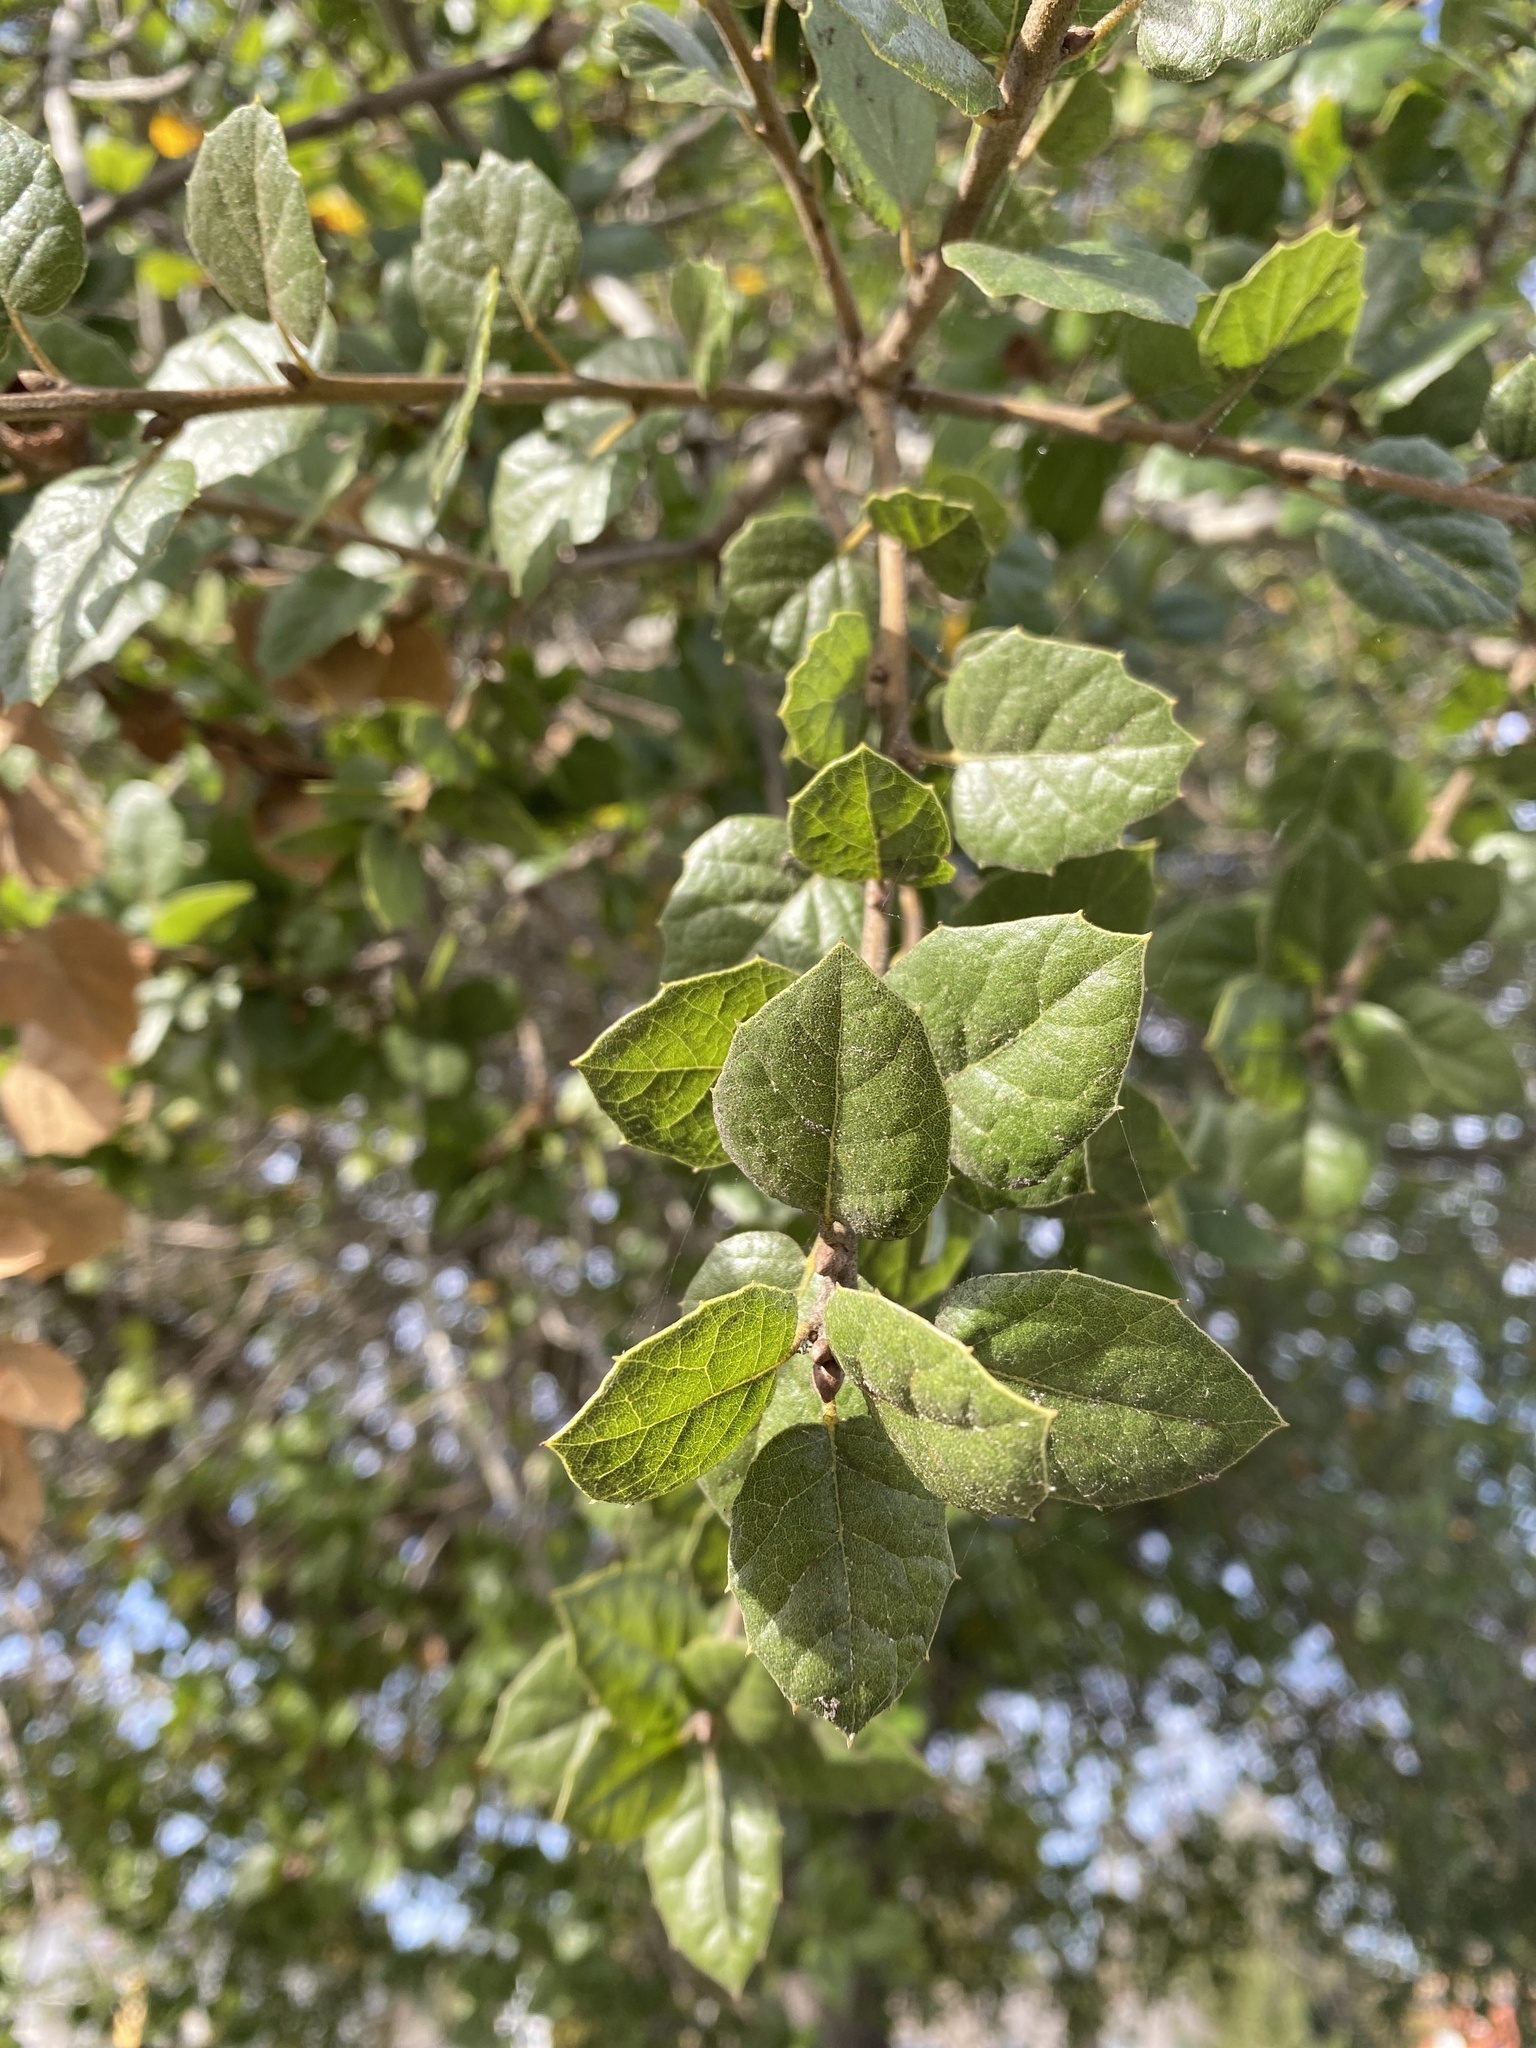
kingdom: Plantae
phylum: Tracheophyta
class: Magnoliopsida
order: Fagales
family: Fagaceae
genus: Quercus
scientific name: Quercus agrifolia
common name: California live oak
